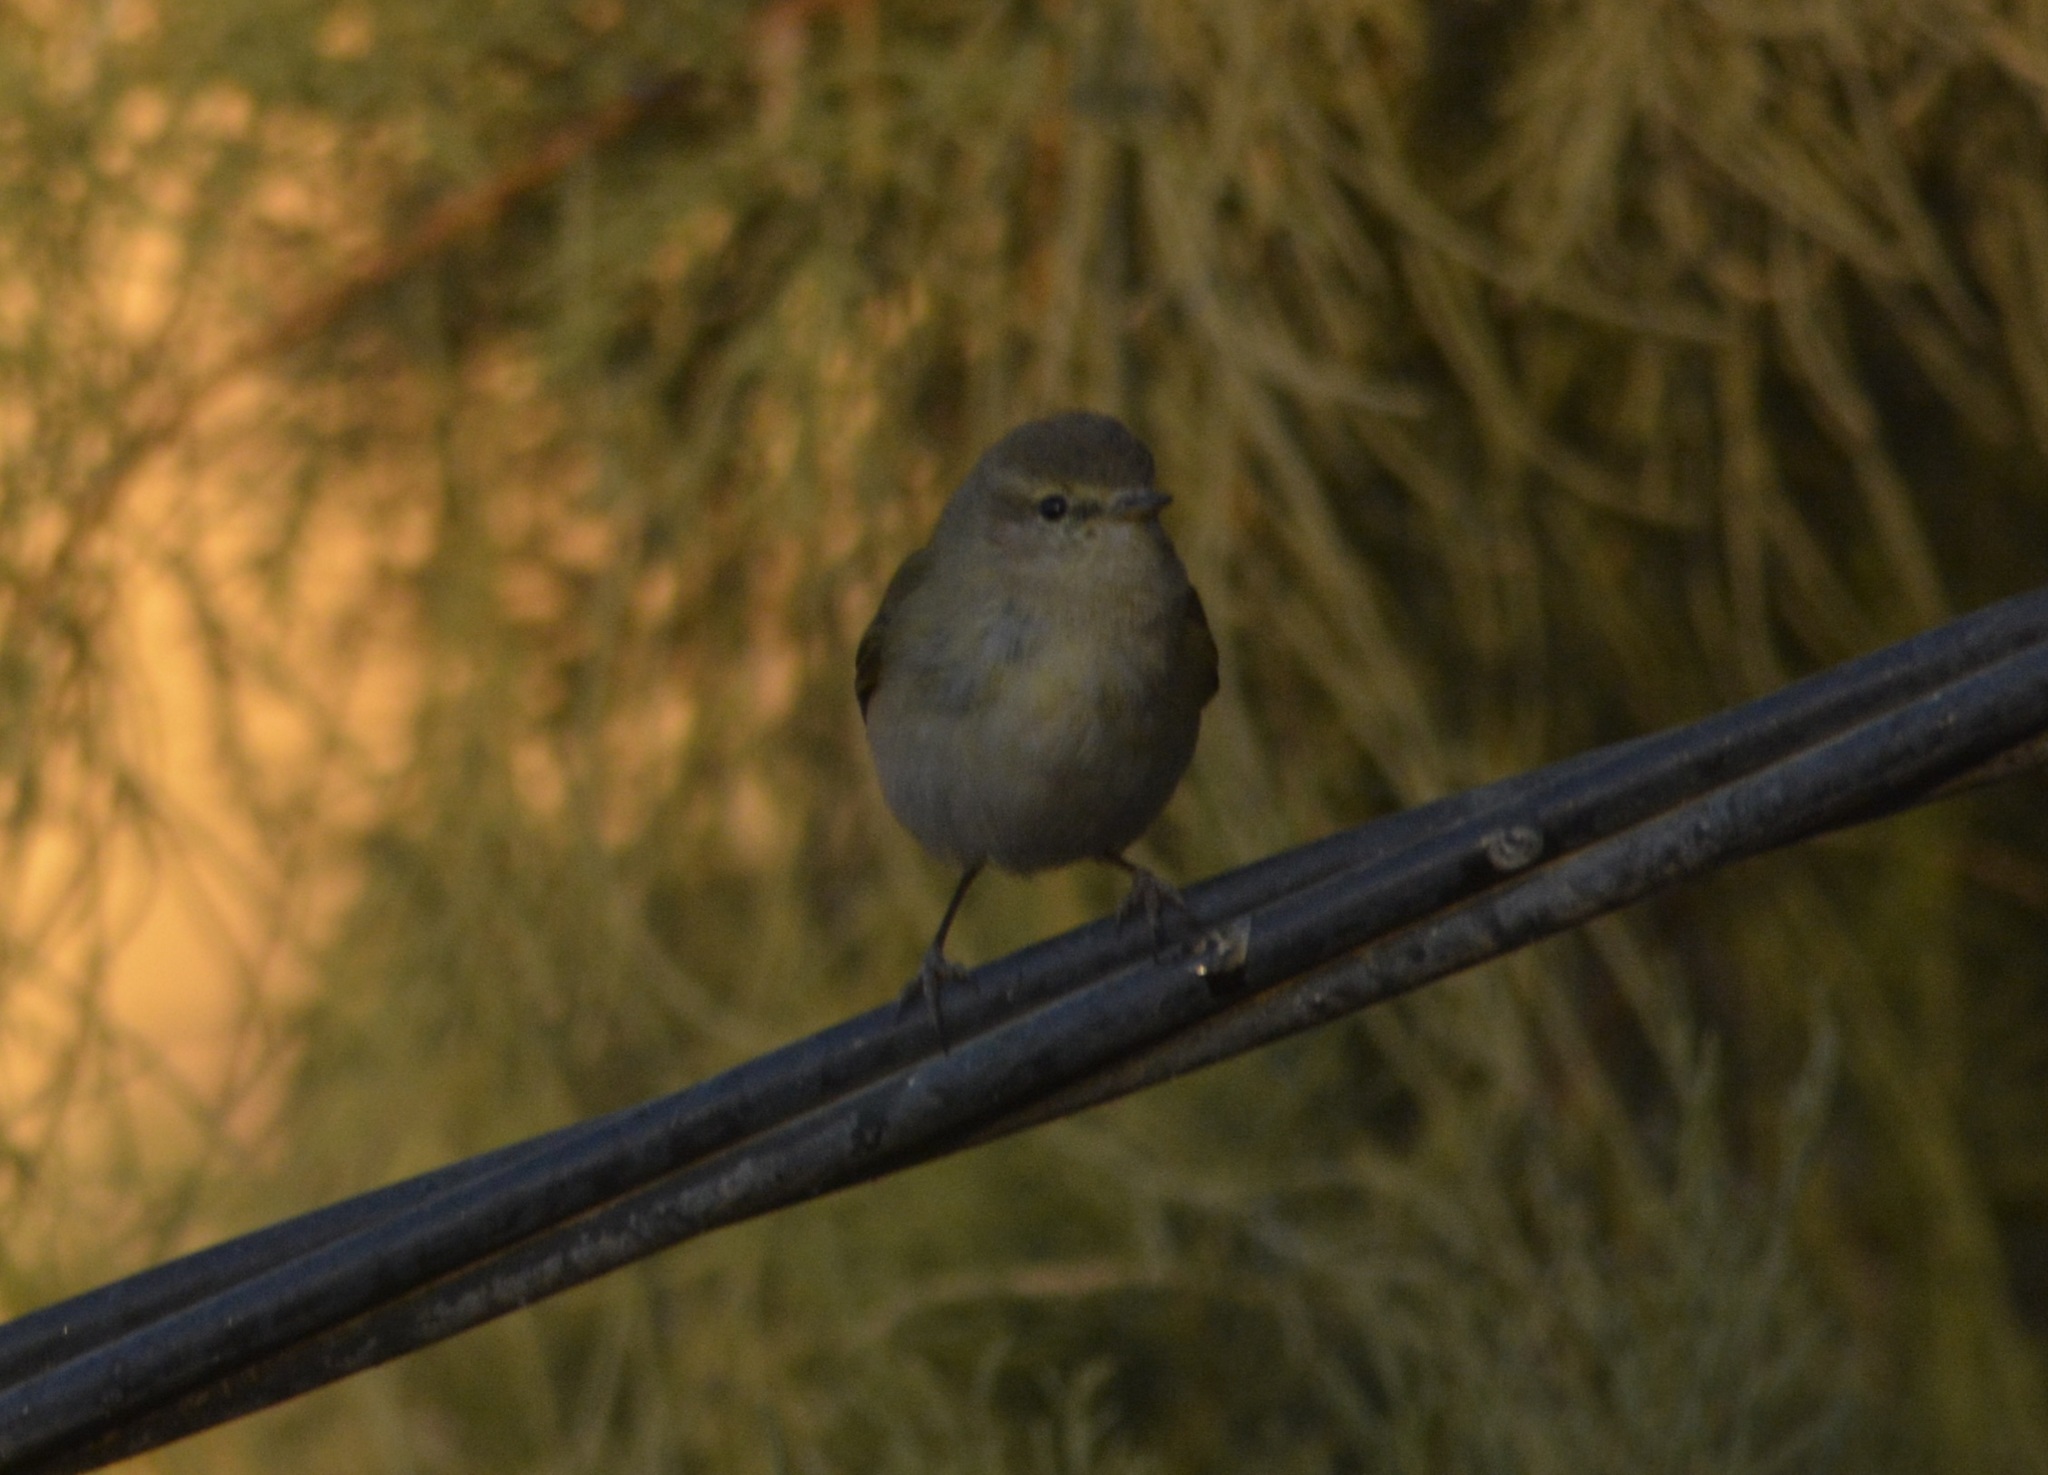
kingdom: Animalia
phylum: Chordata
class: Aves
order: Passeriformes
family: Phylloscopidae
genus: Phylloscopus
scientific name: Phylloscopus collybita
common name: Common chiffchaff
